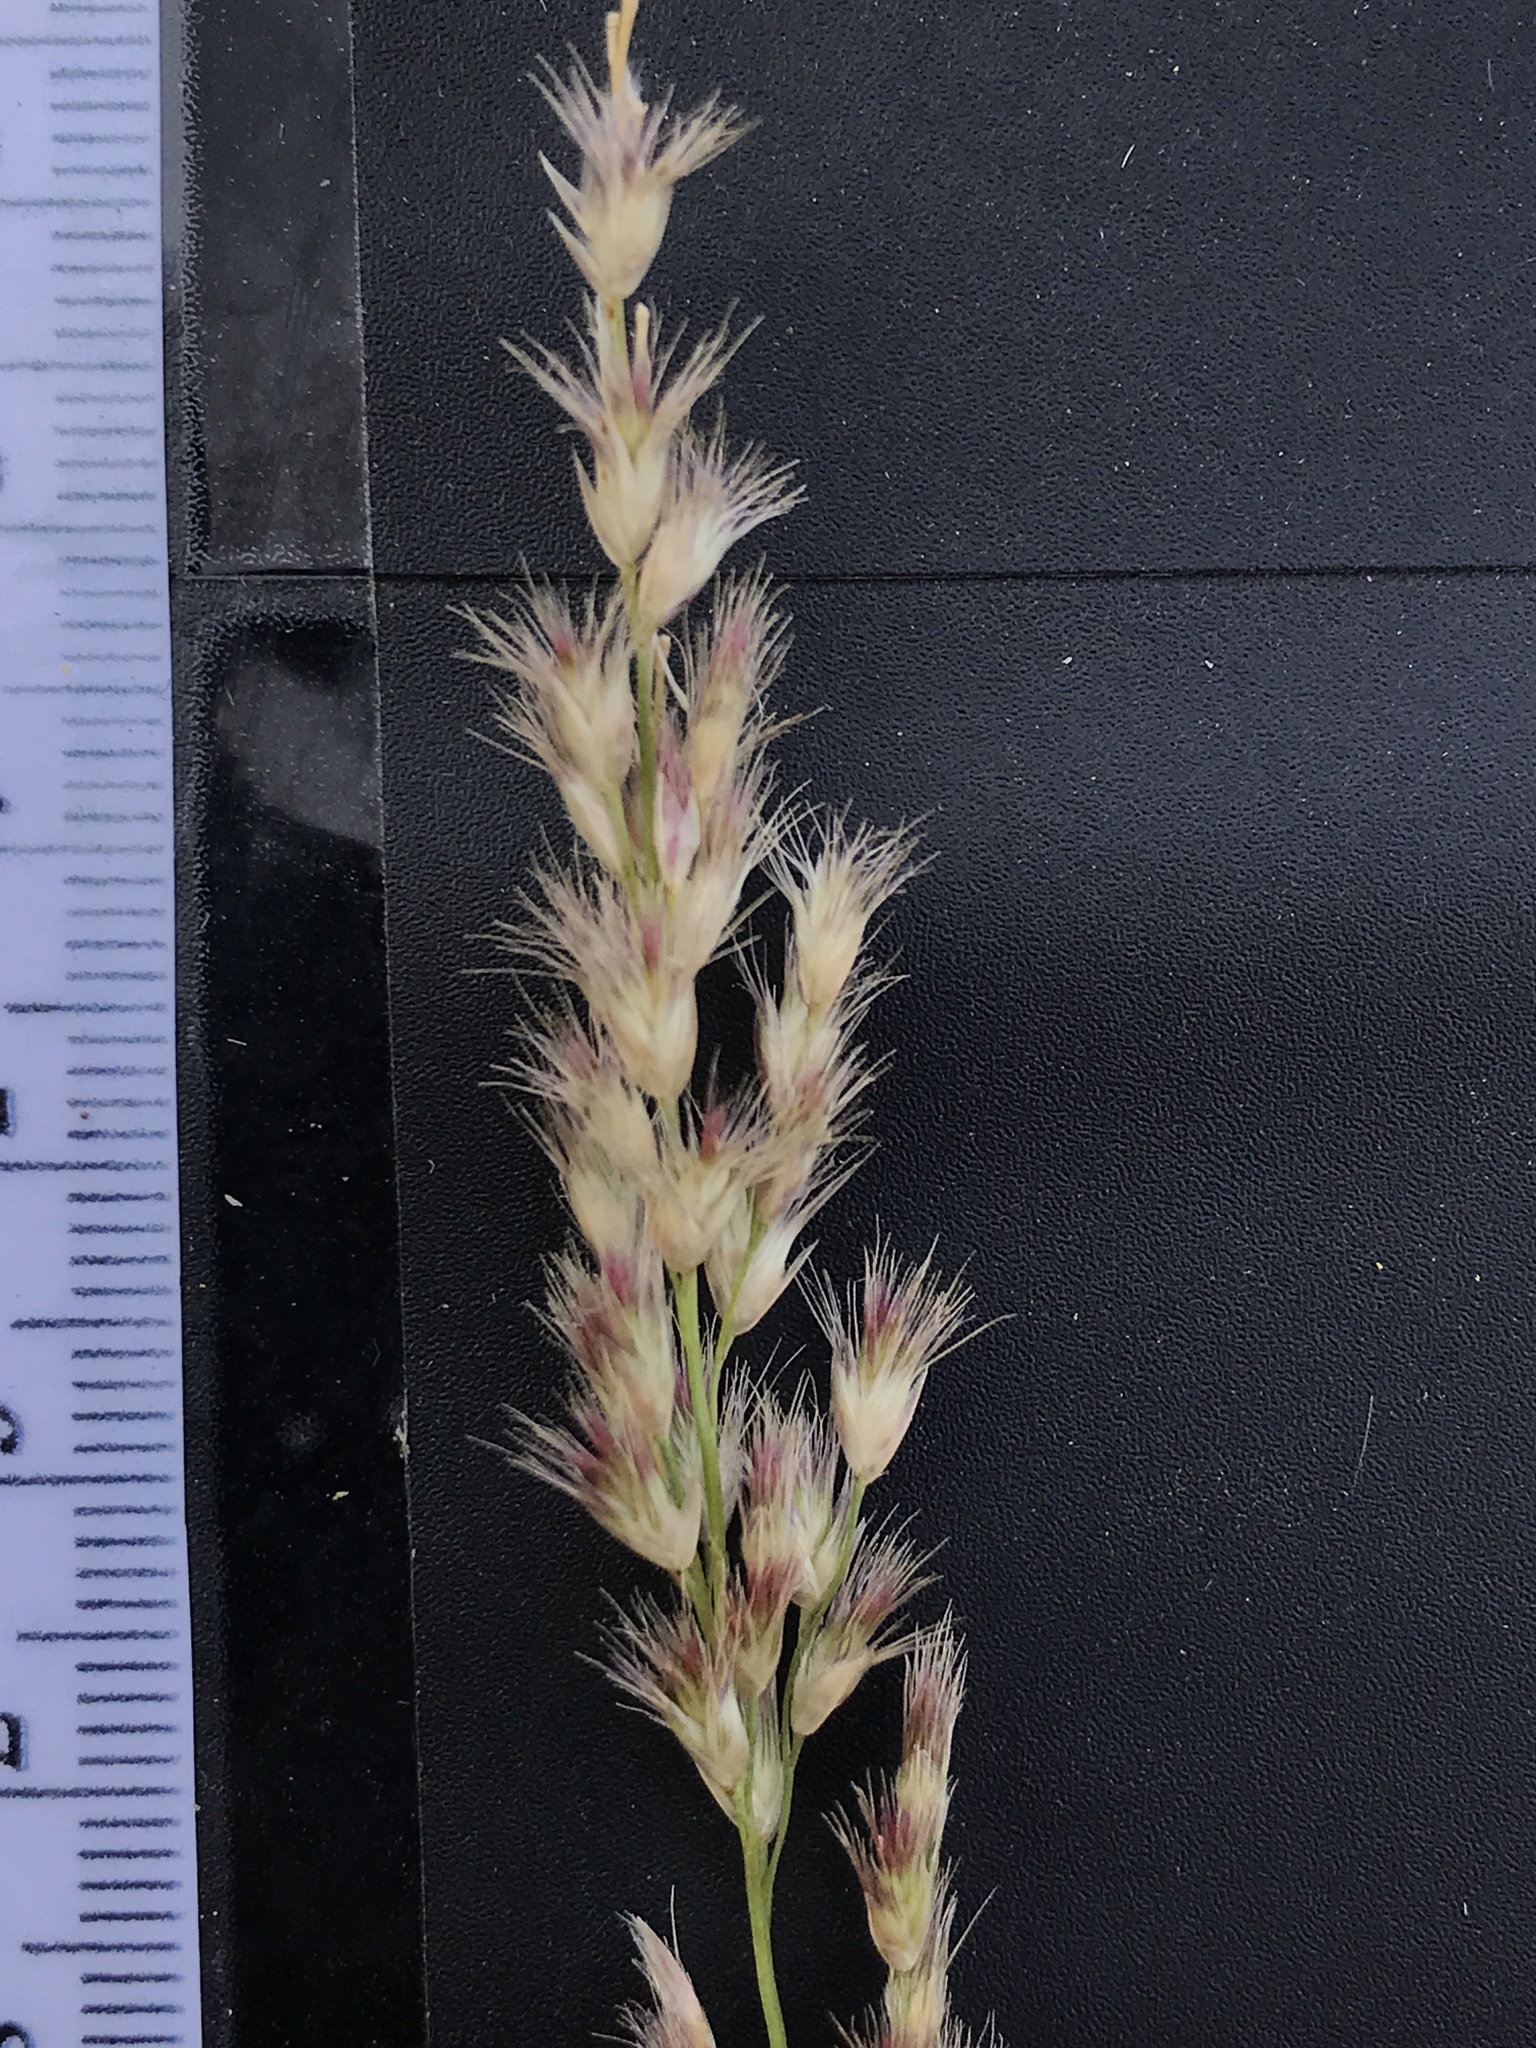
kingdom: Plantae
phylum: Tracheophyta
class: Liliopsida
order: Poales
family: Poaceae
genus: Pappophorum
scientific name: Pappophorum bicolor
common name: Pink pappus grass
